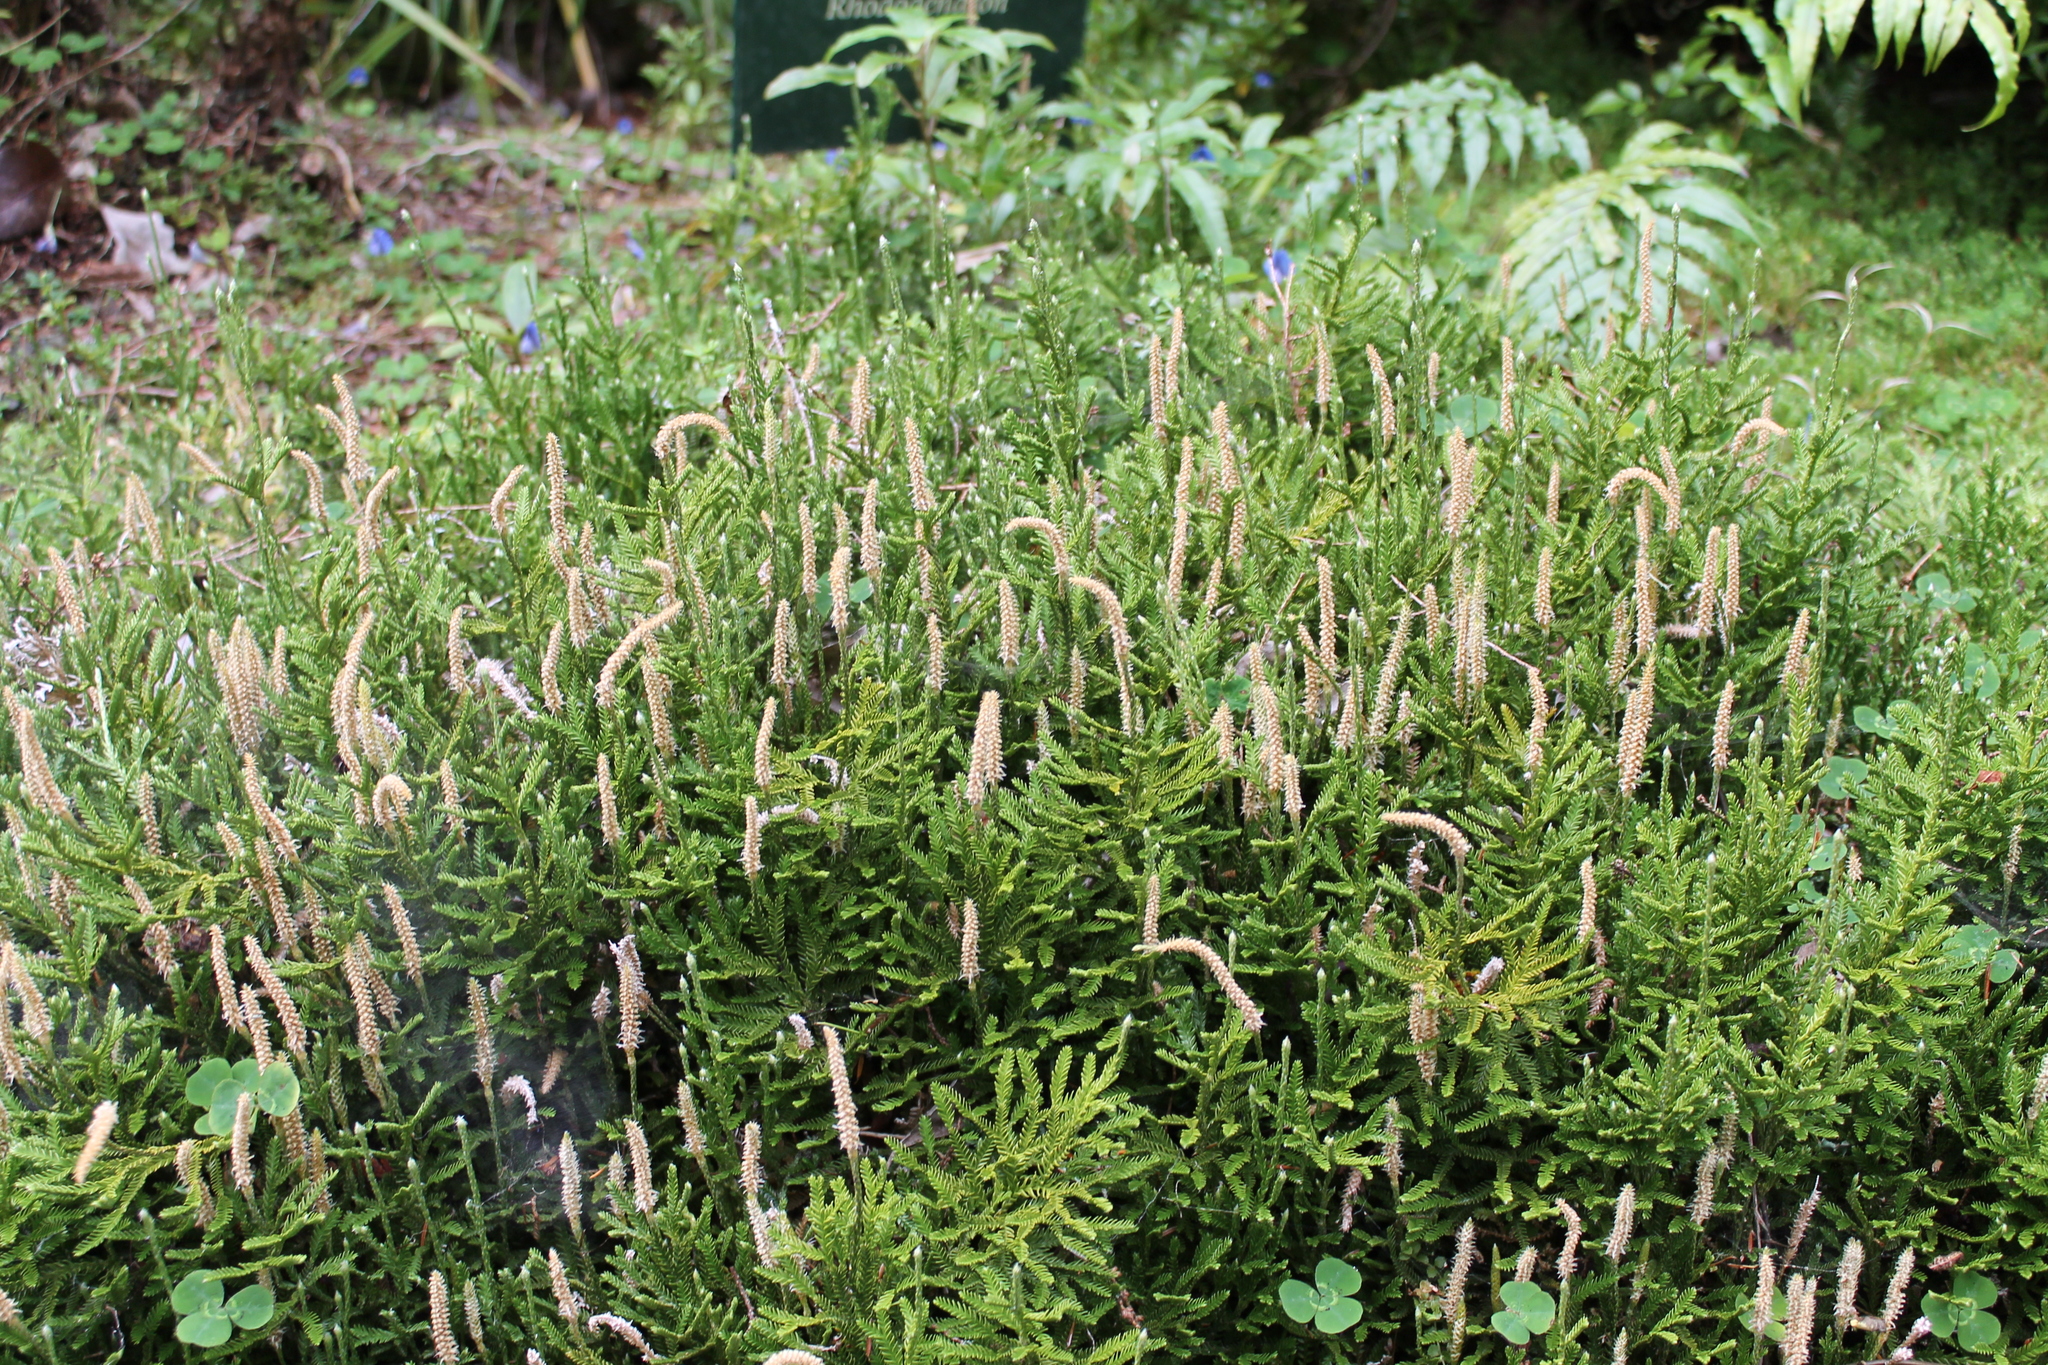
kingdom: Plantae
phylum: Tracheophyta
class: Lycopodiopsida
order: Lycopodiales
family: Lycopodiaceae
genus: Diphasium
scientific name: Diphasium scariosum
